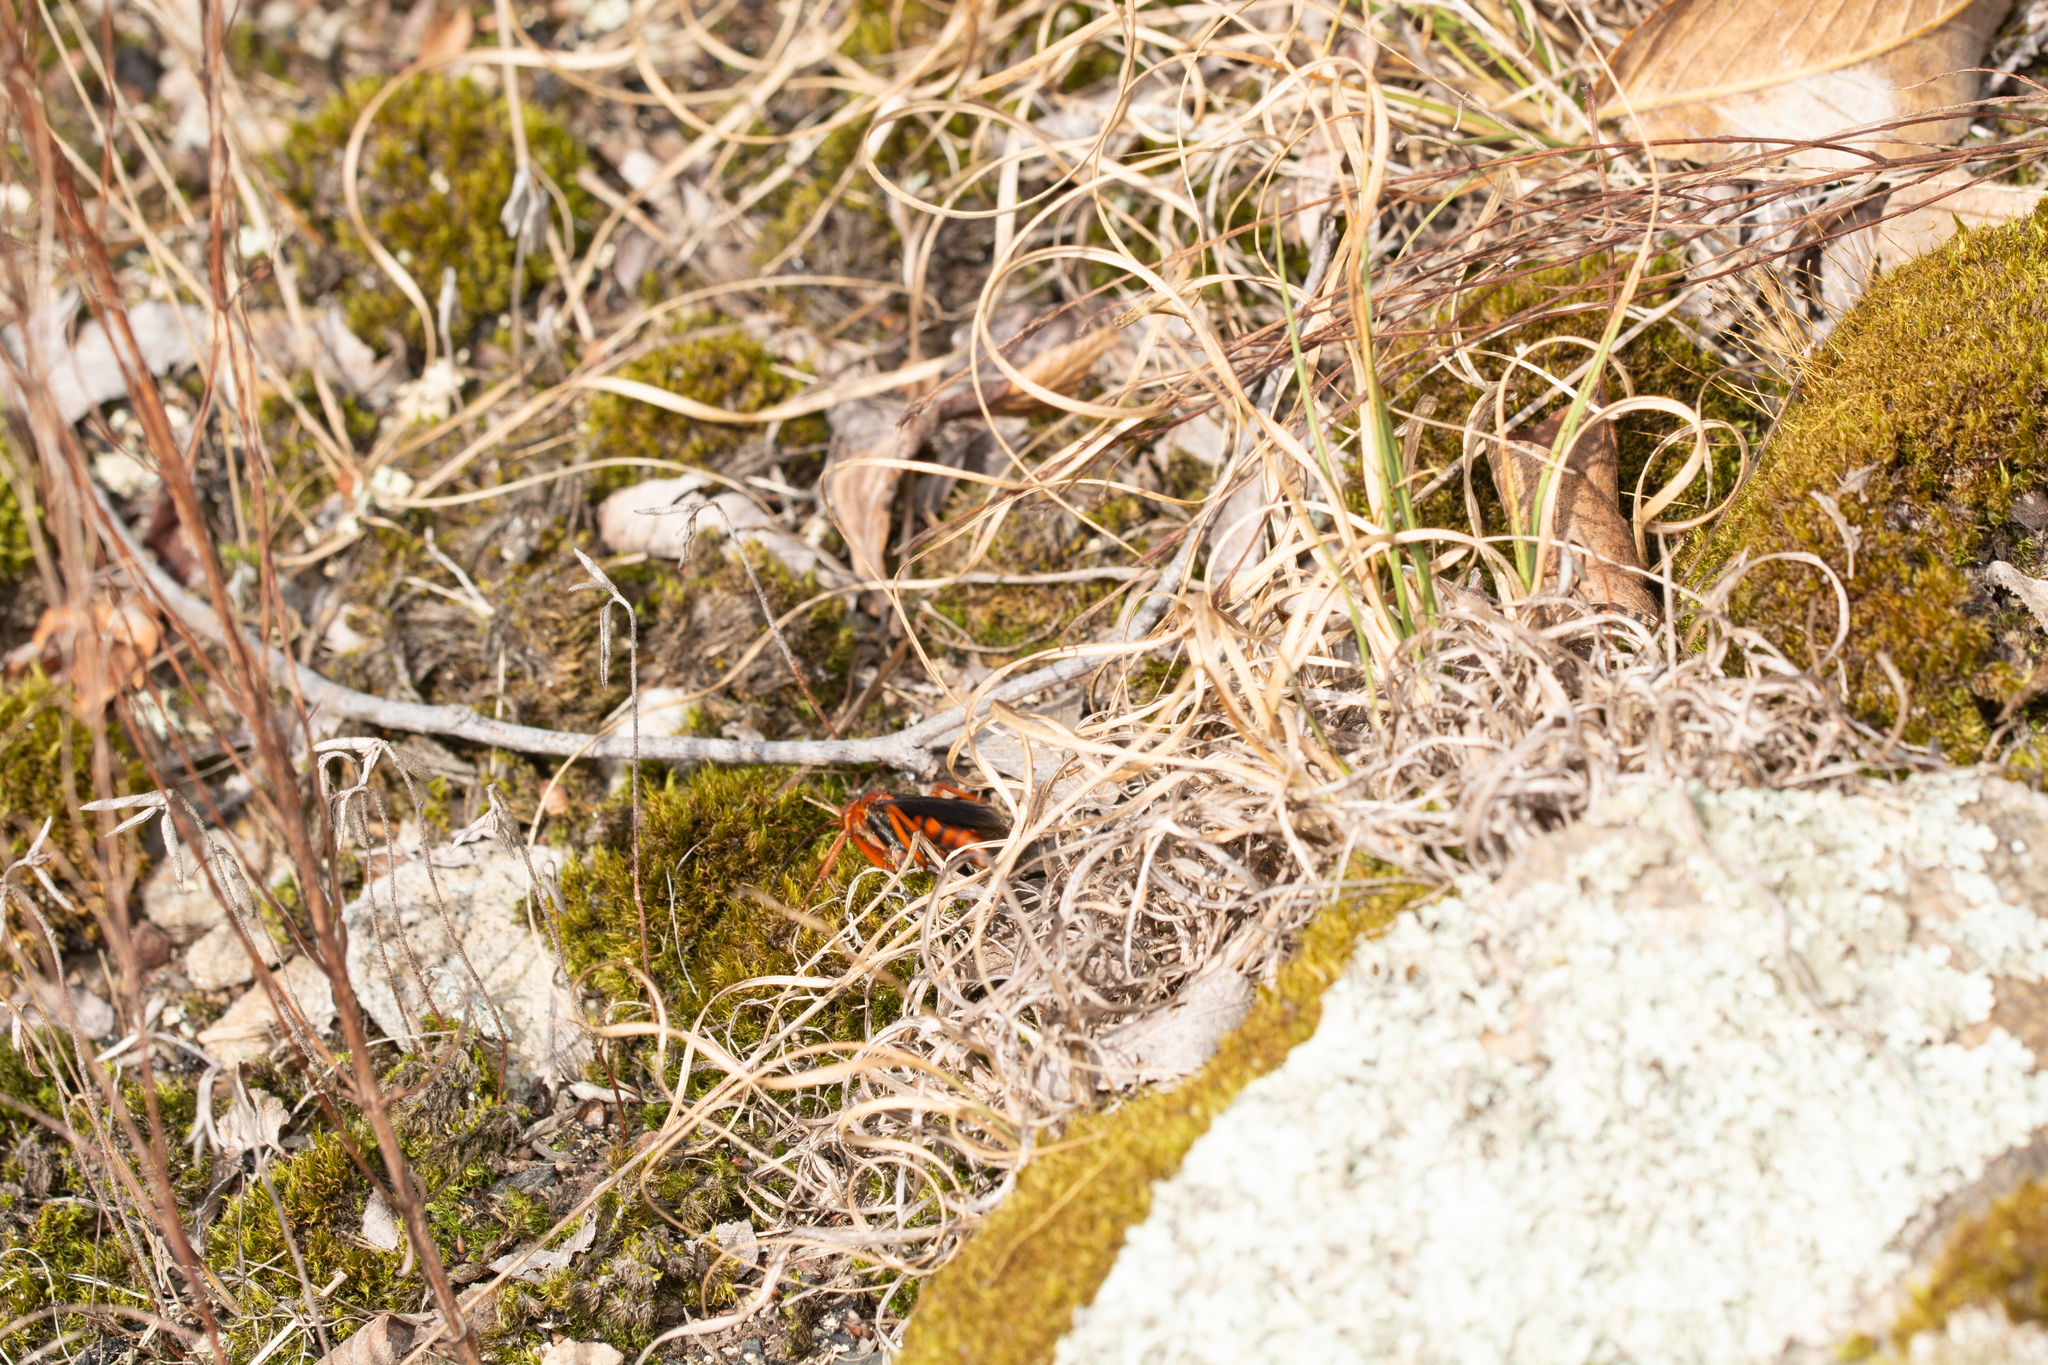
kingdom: Animalia
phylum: Arthropoda
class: Insecta
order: Hymenoptera
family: Pompilidae
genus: Tachypompilus
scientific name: Tachypompilus ferrugineus
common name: Rusty spider wasp
